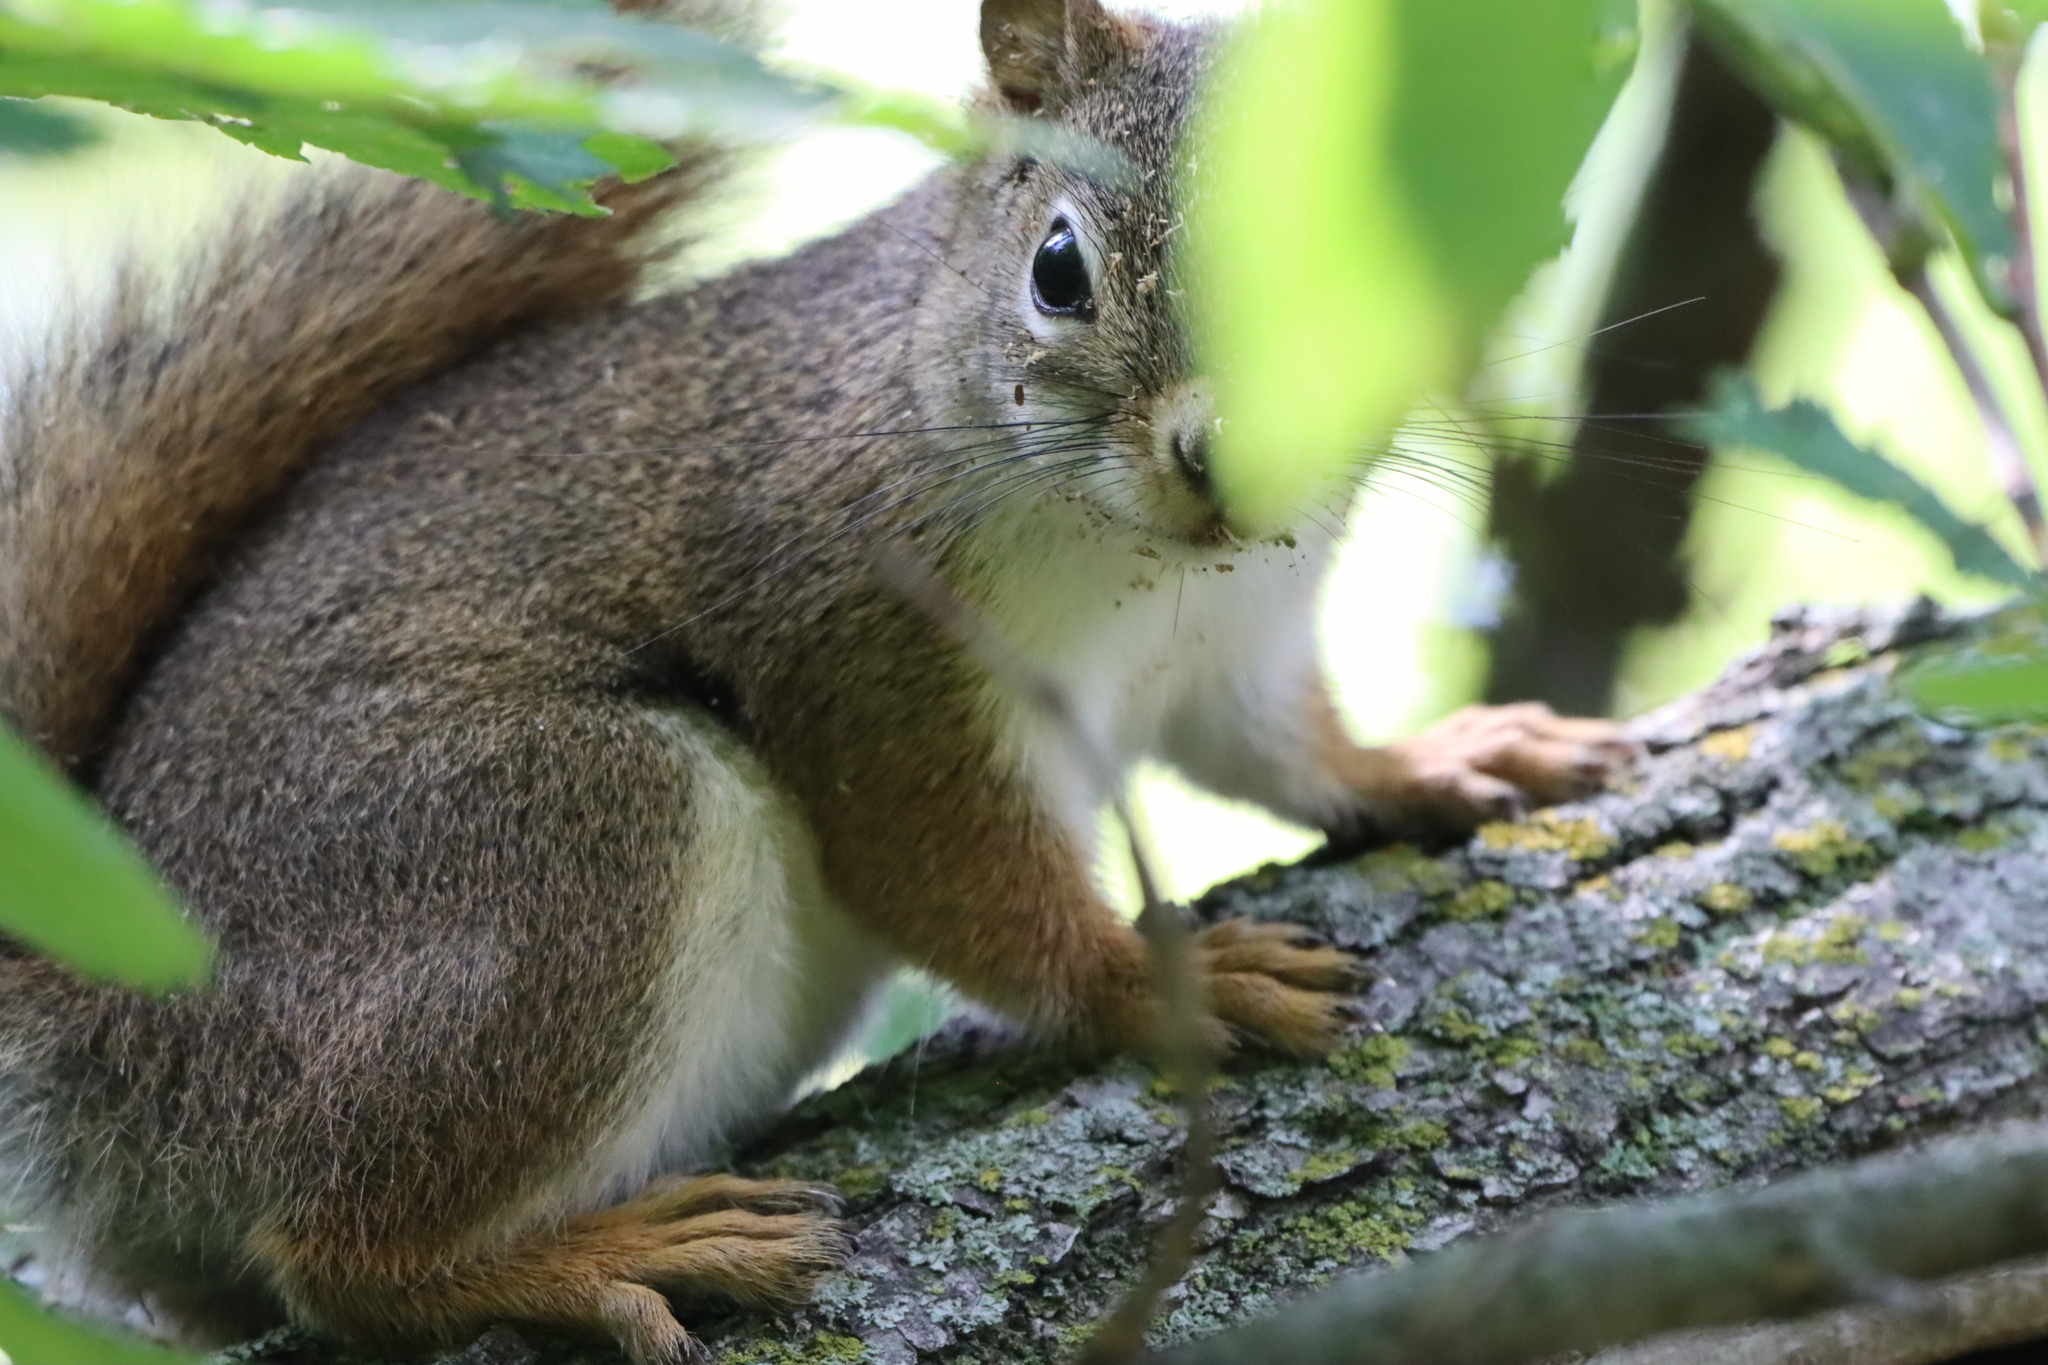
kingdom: Animalia
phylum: Chordata
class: Mammalia
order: Rodentia
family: Sciuridae
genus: Tamiasciurus
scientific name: Tamiasciurus hudsonicus
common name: Red squirrel
